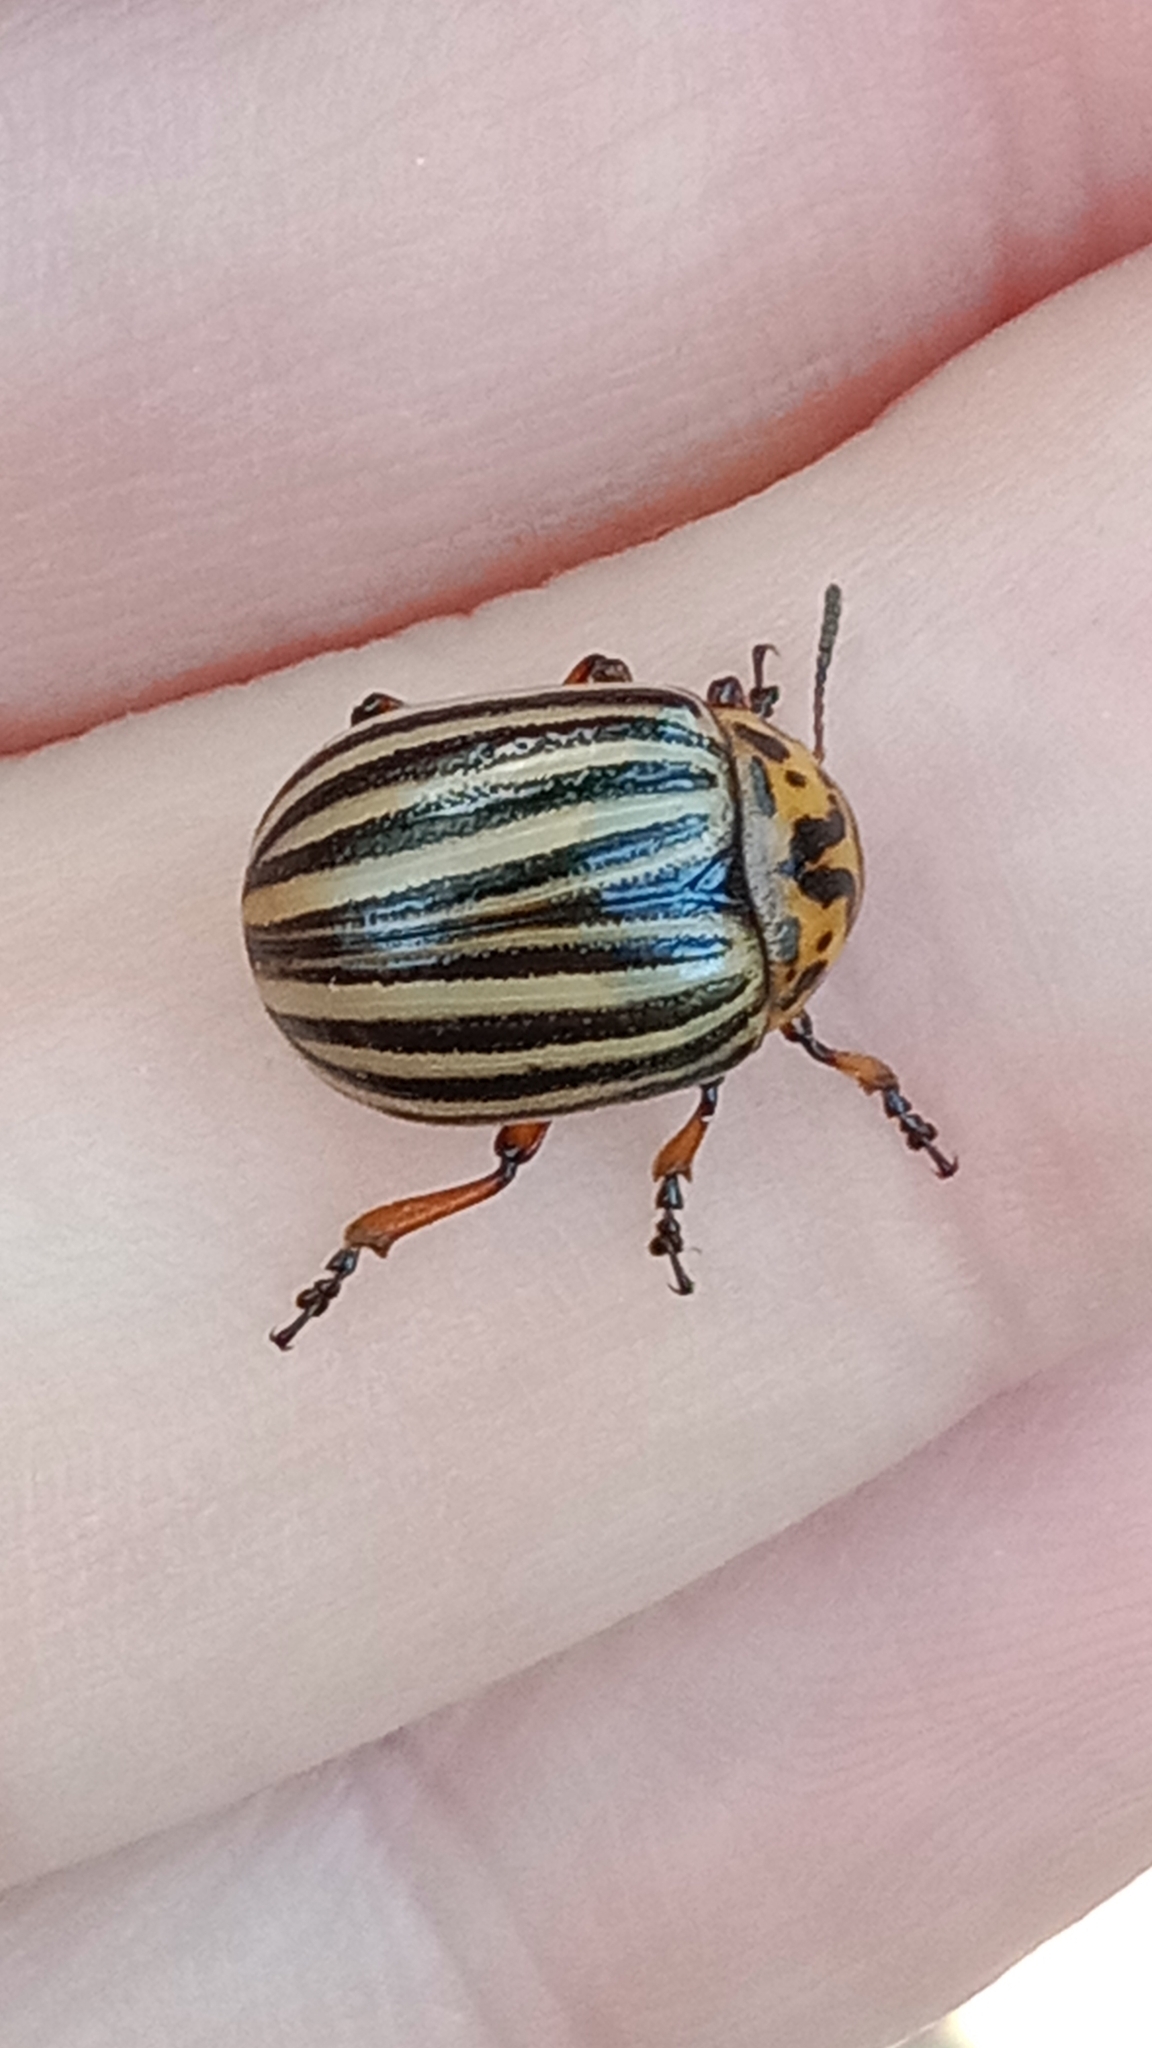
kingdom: Animalia
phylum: Arthropoda
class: Insecta
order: Coleoptera
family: Chrysomelidae
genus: Leptinotarsa
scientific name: Leptinotarsa decemlineata
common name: Colorado potato beetle
